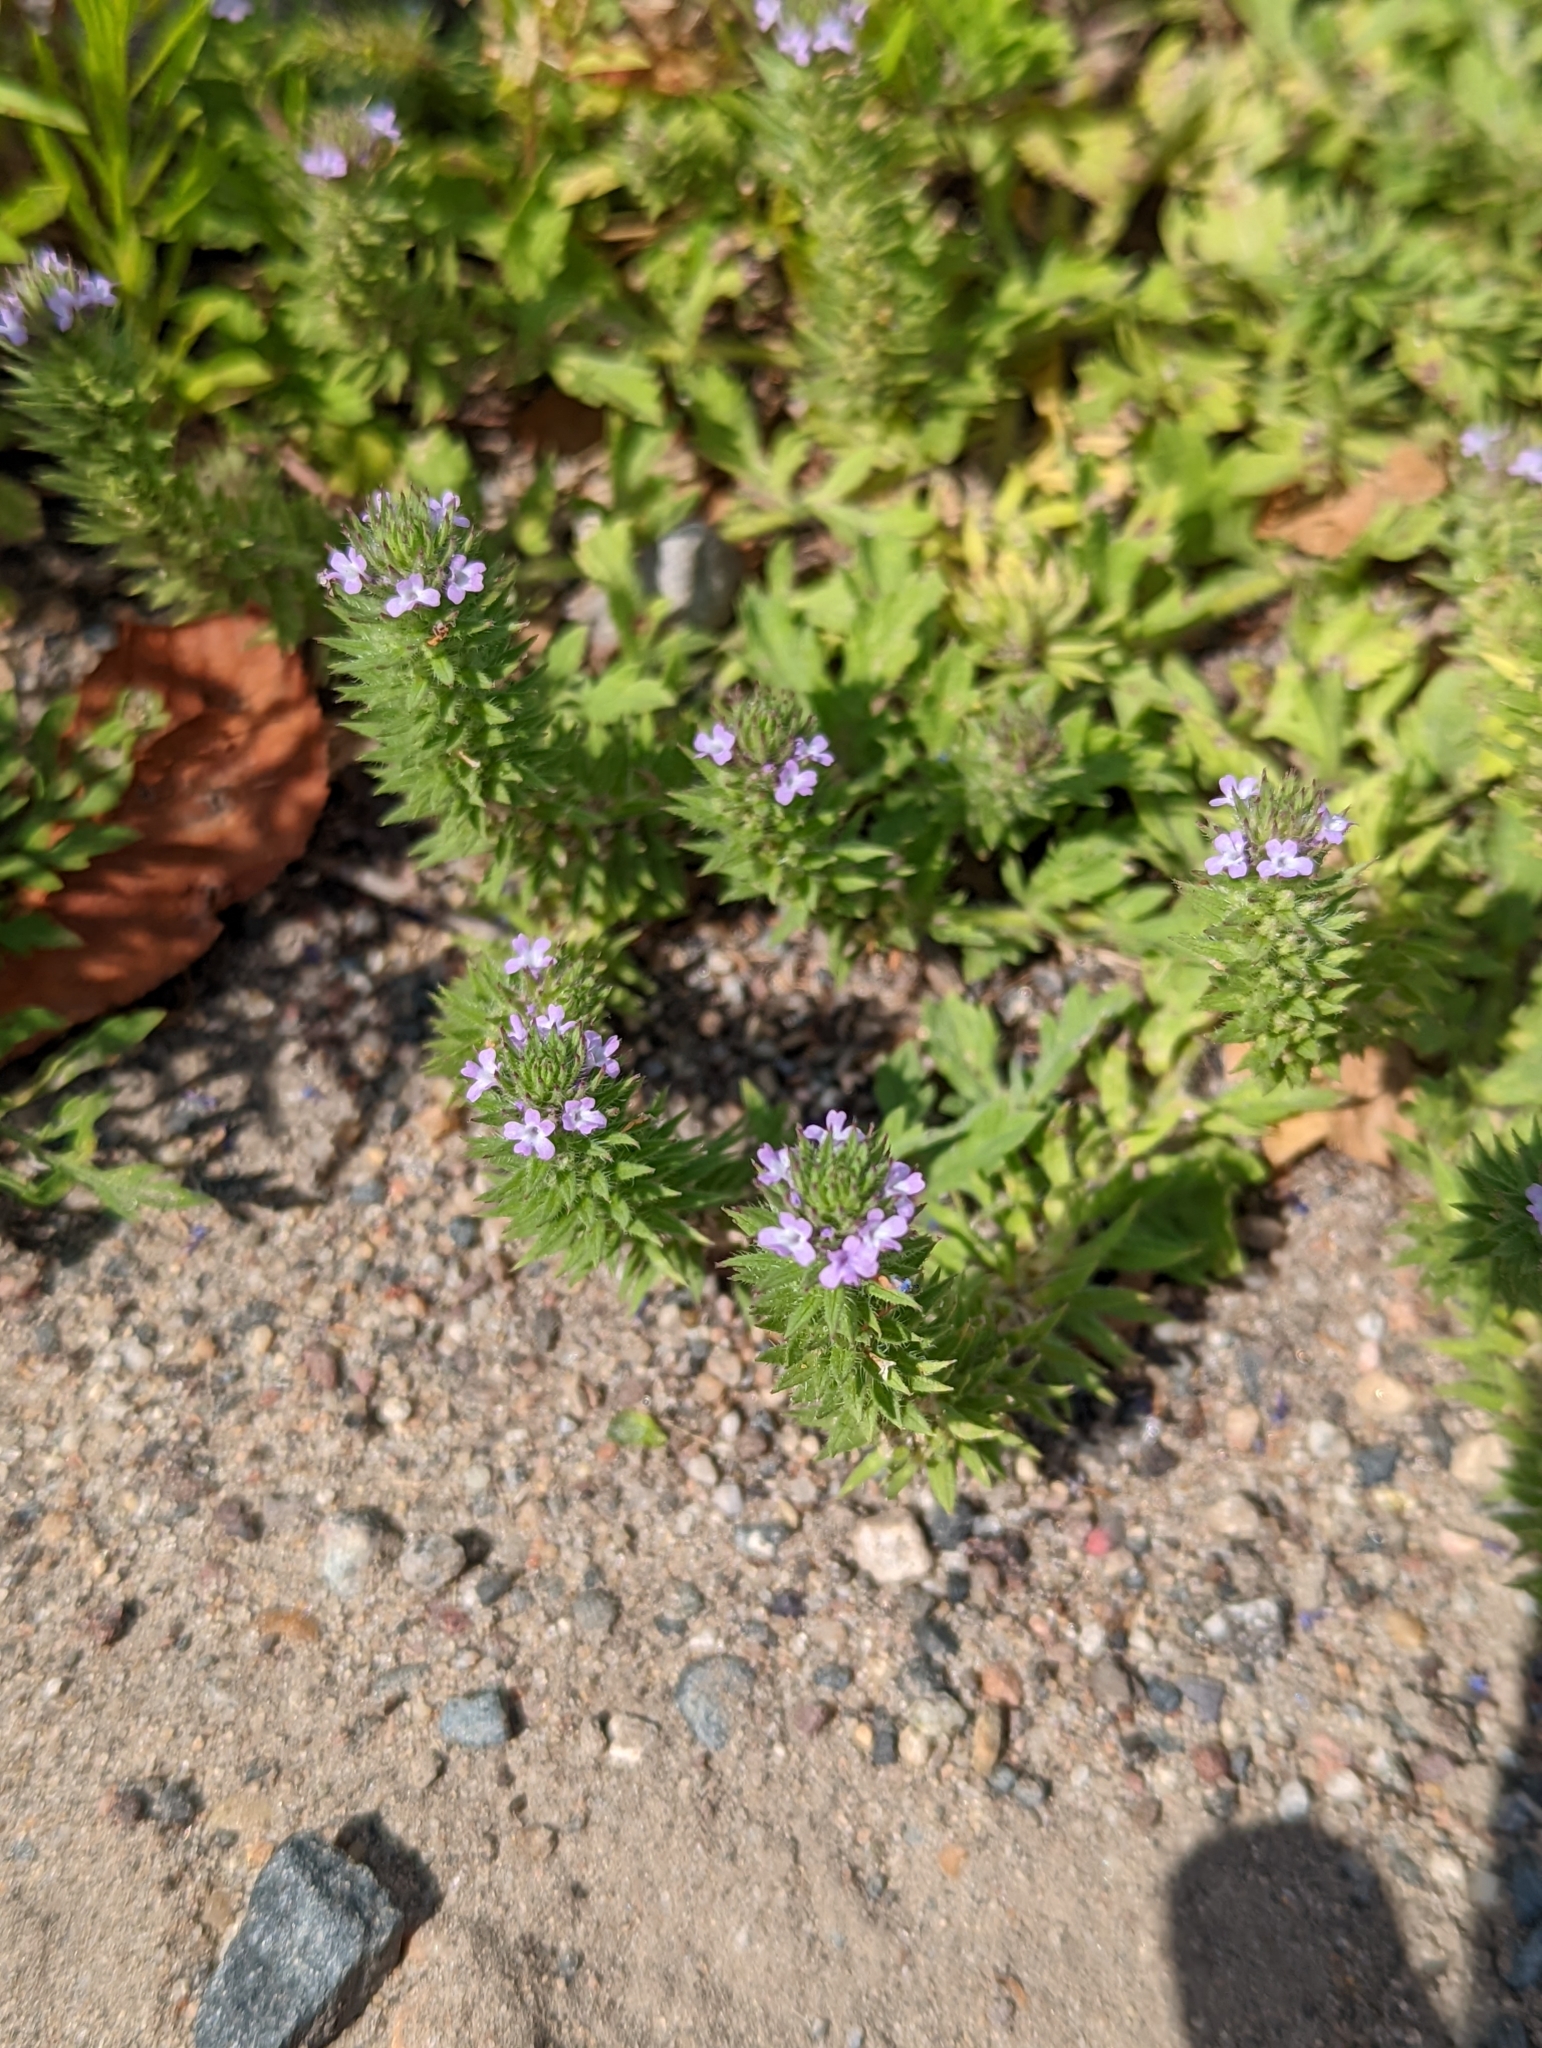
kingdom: Plantae
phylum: Tracheophyta
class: Magnoliopsida
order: Lamiales
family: Verbenaceae
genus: Verbena
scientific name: Verbena bracteata
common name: Bracted vervain
